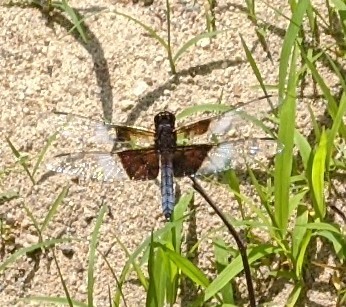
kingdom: Animalia
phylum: Arthropoda
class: Insecta
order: Odonata
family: Libellulidae
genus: Libellula
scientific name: Libellula luctuosa
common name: Widow skimmer
